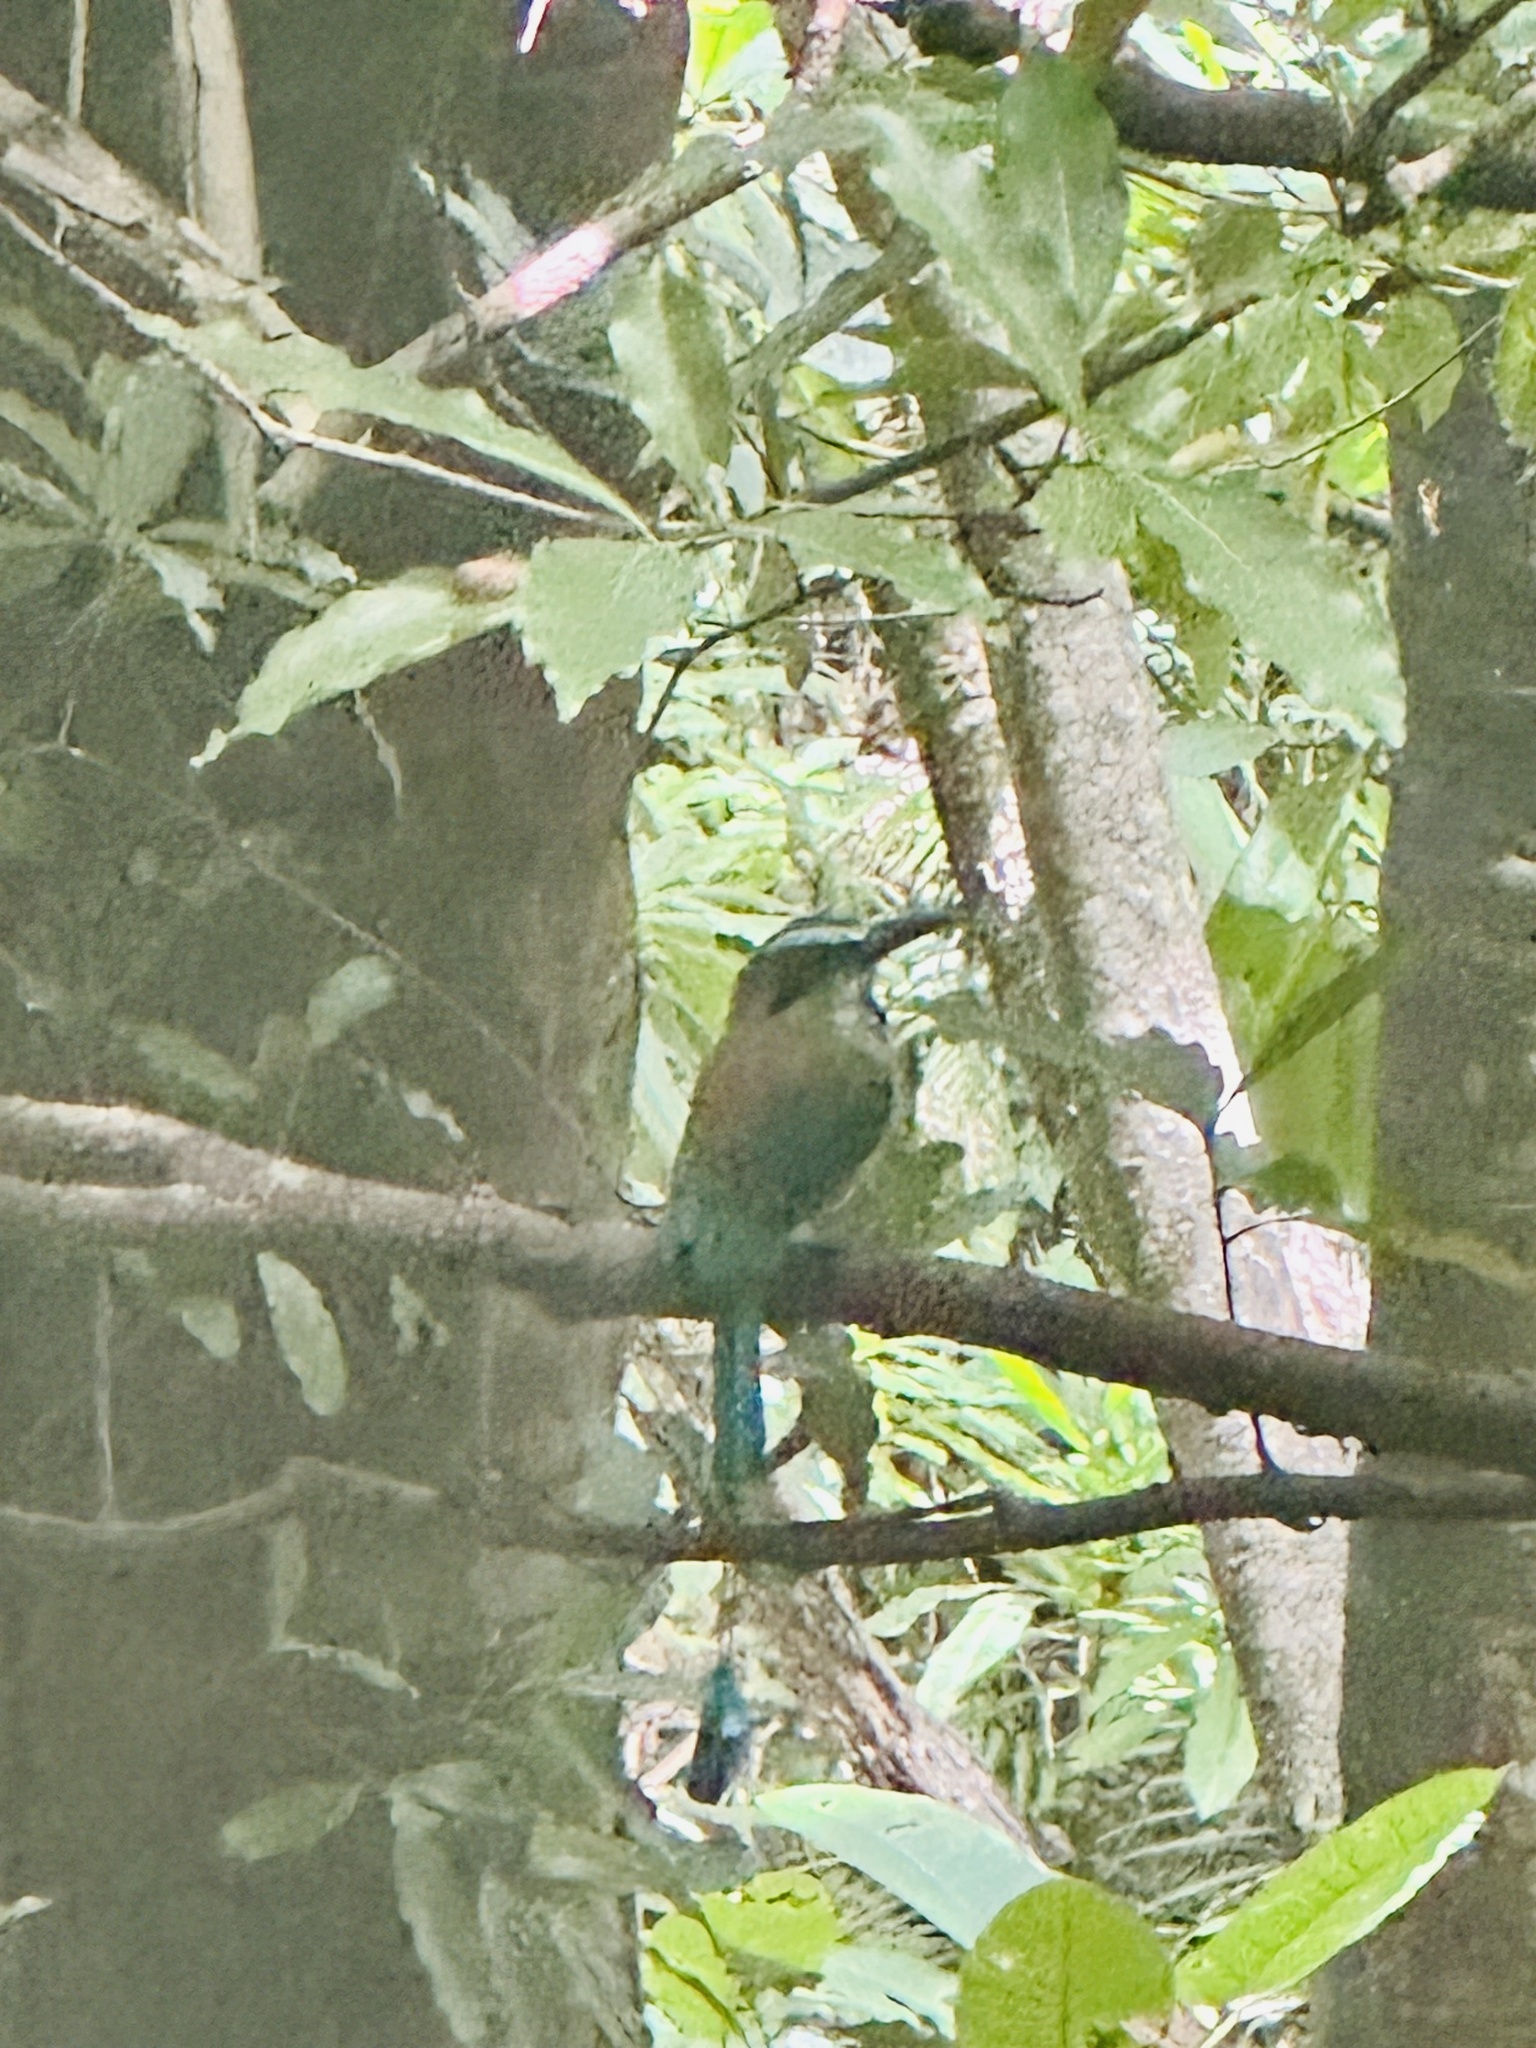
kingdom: Animalia
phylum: Chordata
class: Aves
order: Coraciiformes
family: Momotidae
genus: Eumomota
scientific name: Eumomota superciliosa
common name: Turquoise-browed motmot
